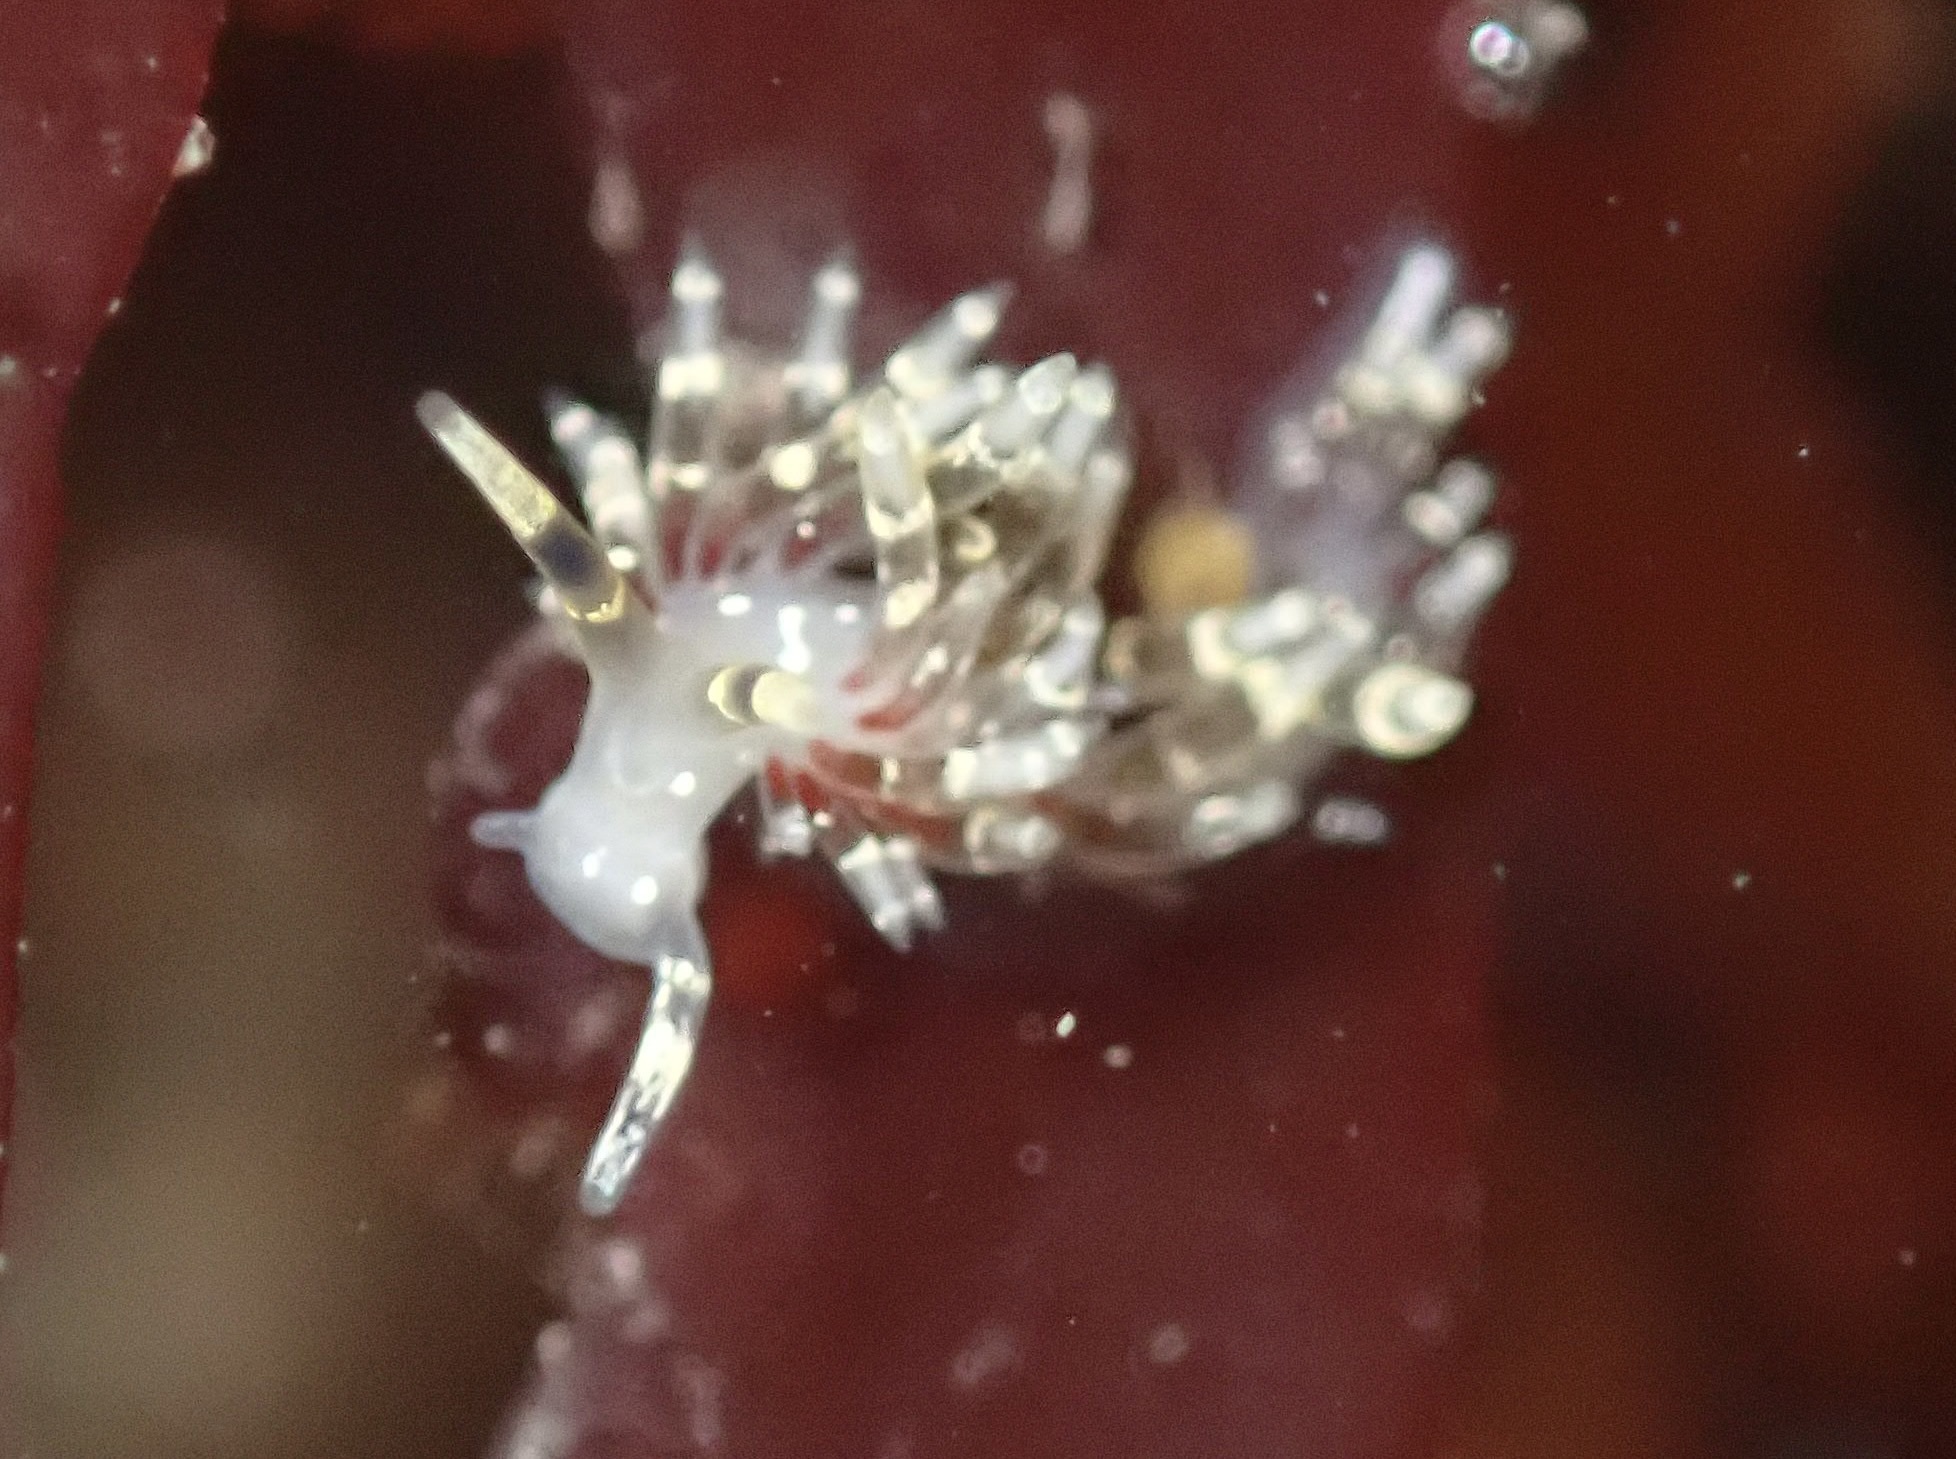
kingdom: Animalia
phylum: Mollusca
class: Gastropoda
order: Nudibranchia
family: Abronicidae
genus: Abronica
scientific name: Abronica abronia
